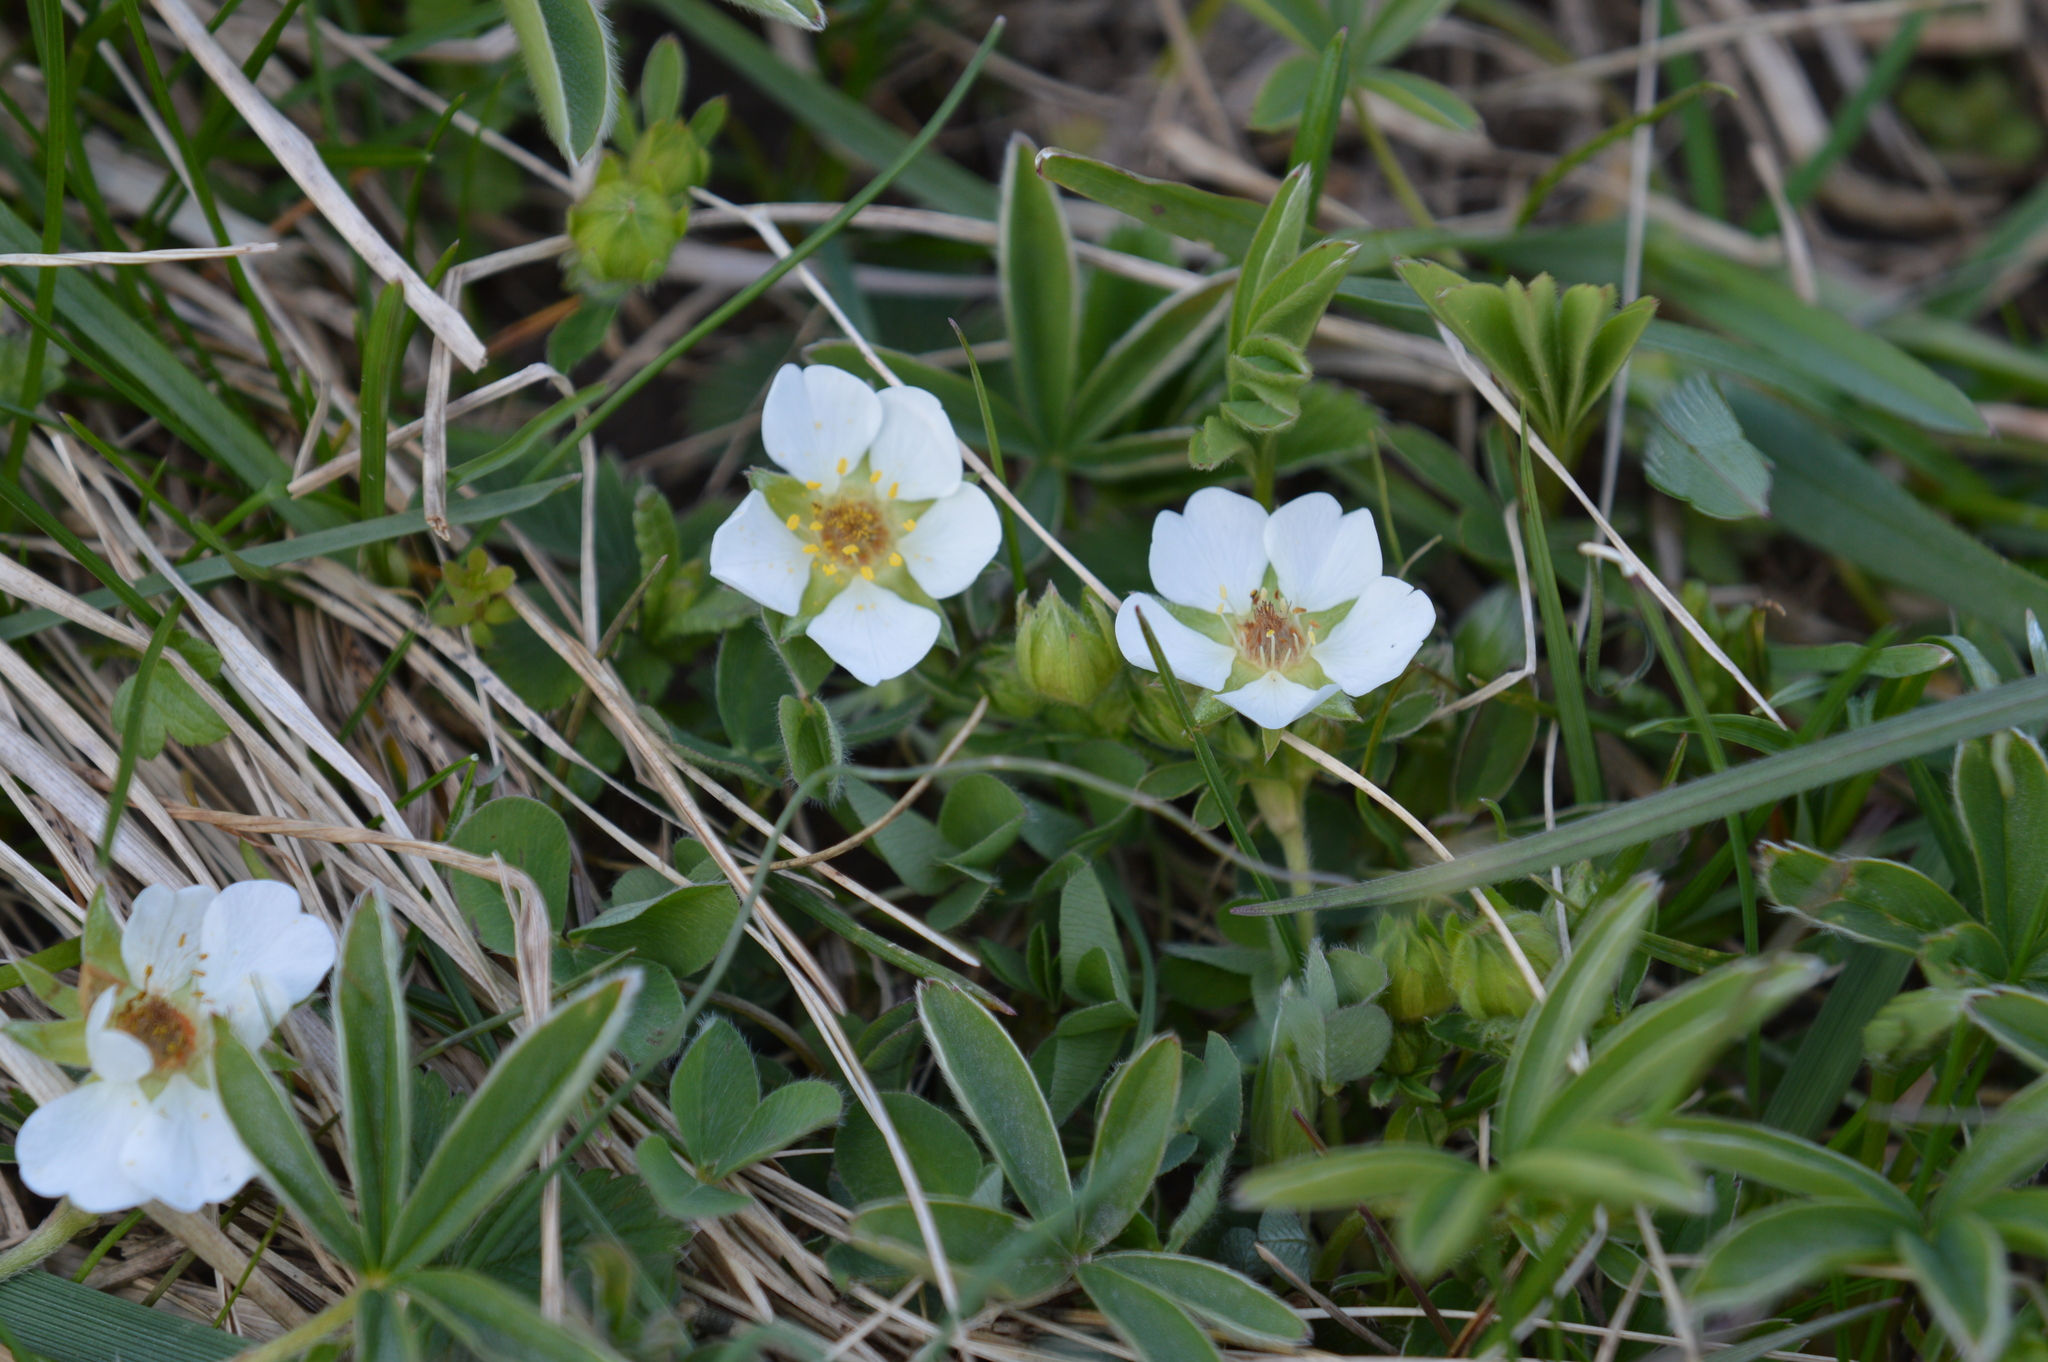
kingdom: Plantae
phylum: Tracheophyta
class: Magnoliopsida
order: Rosales
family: Rosaceae
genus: Potentilla
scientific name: Potentilla alba
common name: White cinquefoil
